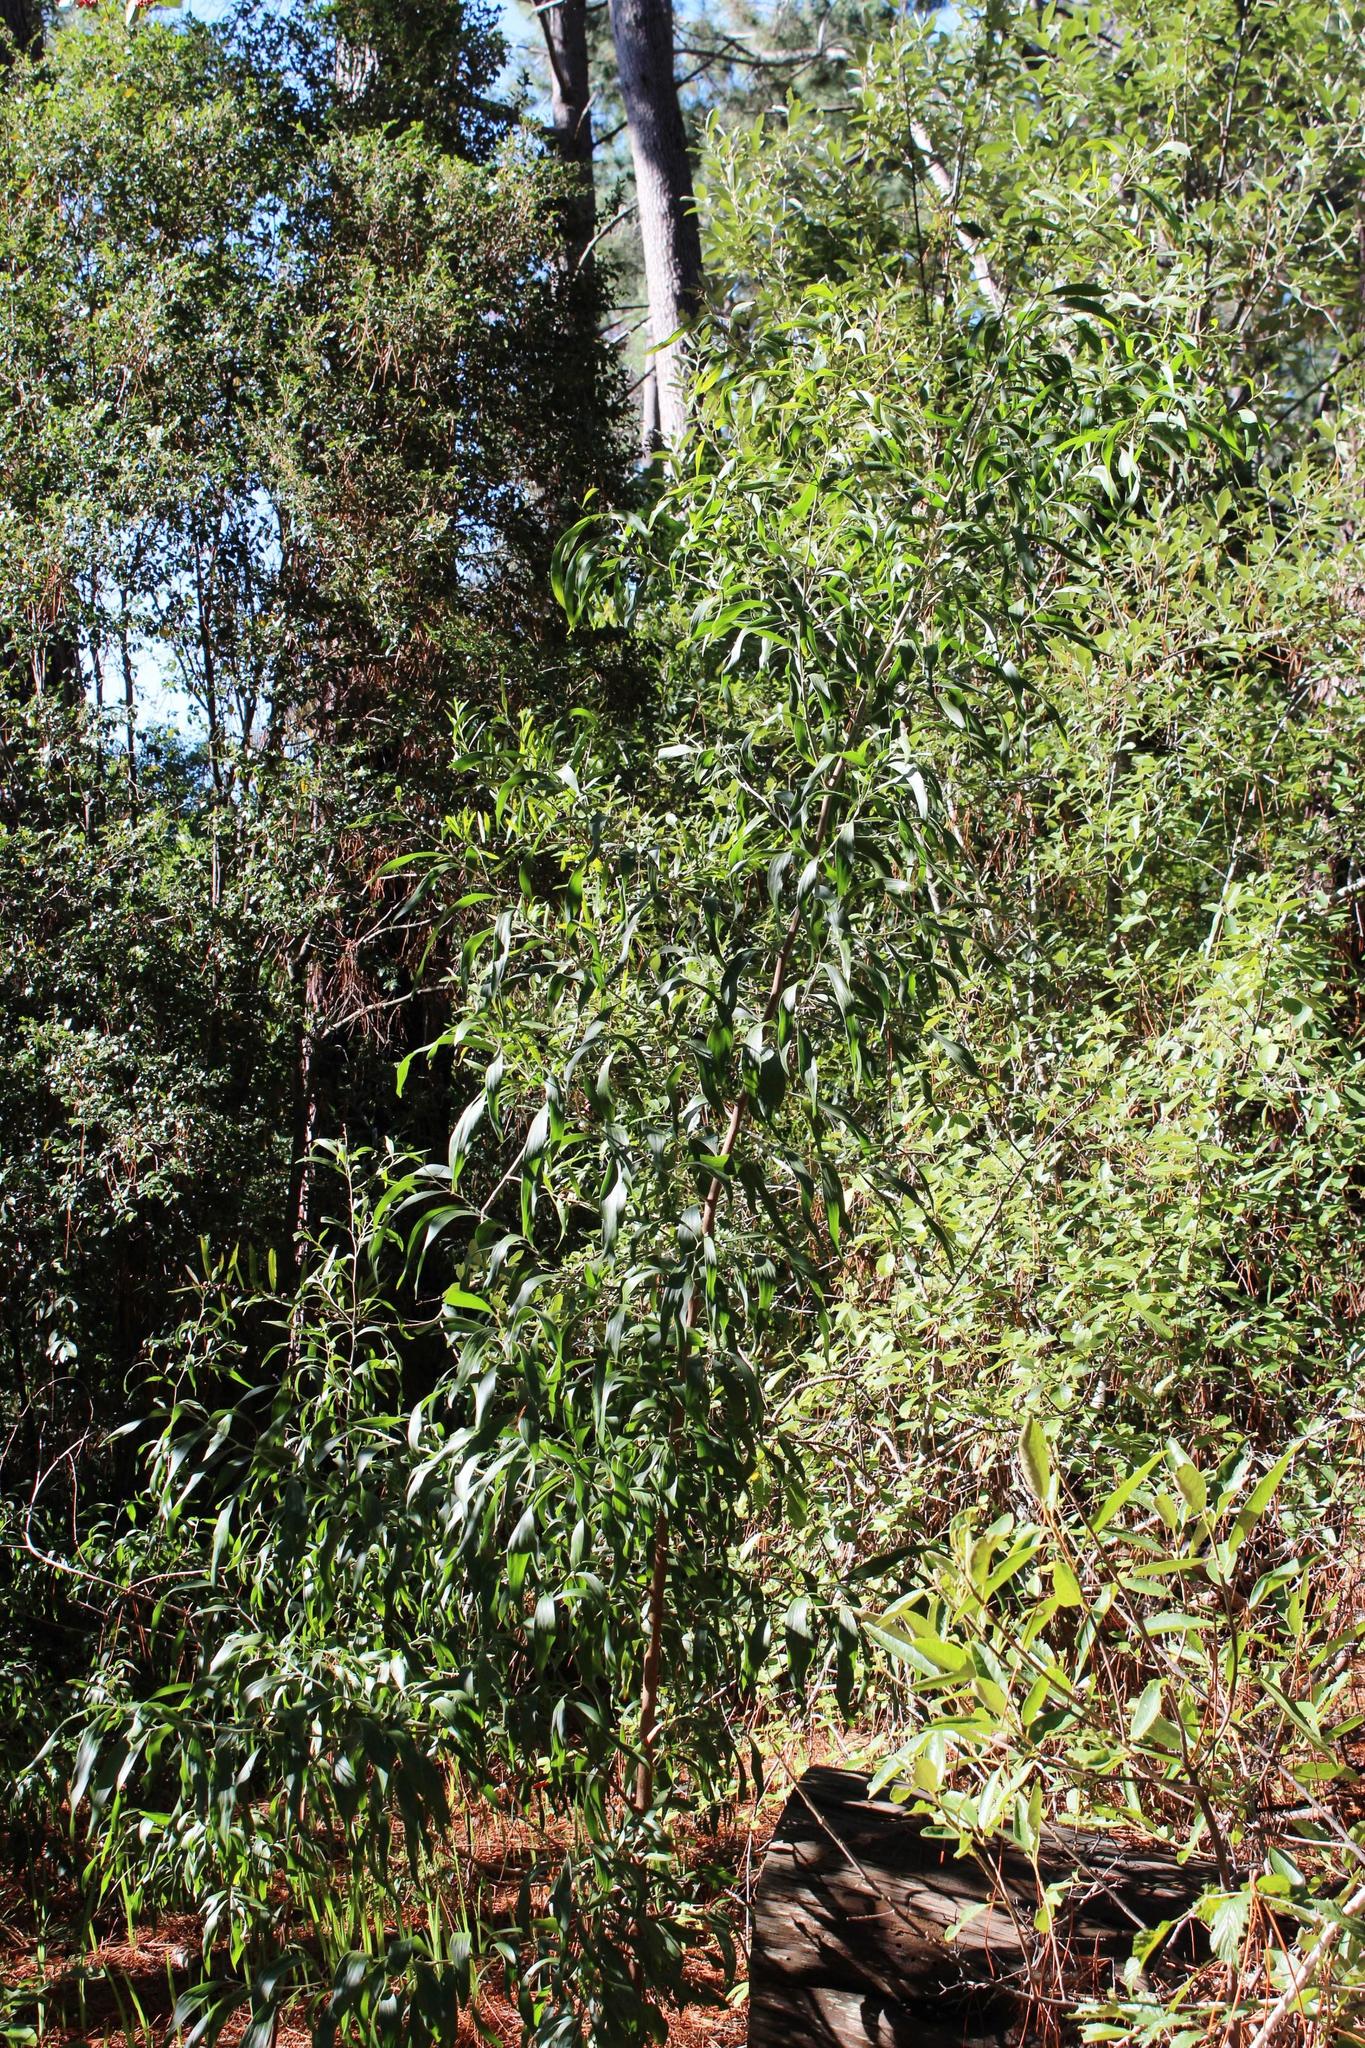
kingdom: Plantae
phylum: Tracheophyta
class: Magnoliopsida
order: Fabales
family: Fabaceae
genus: Acacia
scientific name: Acacia melanoxylon
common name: Blackwood
